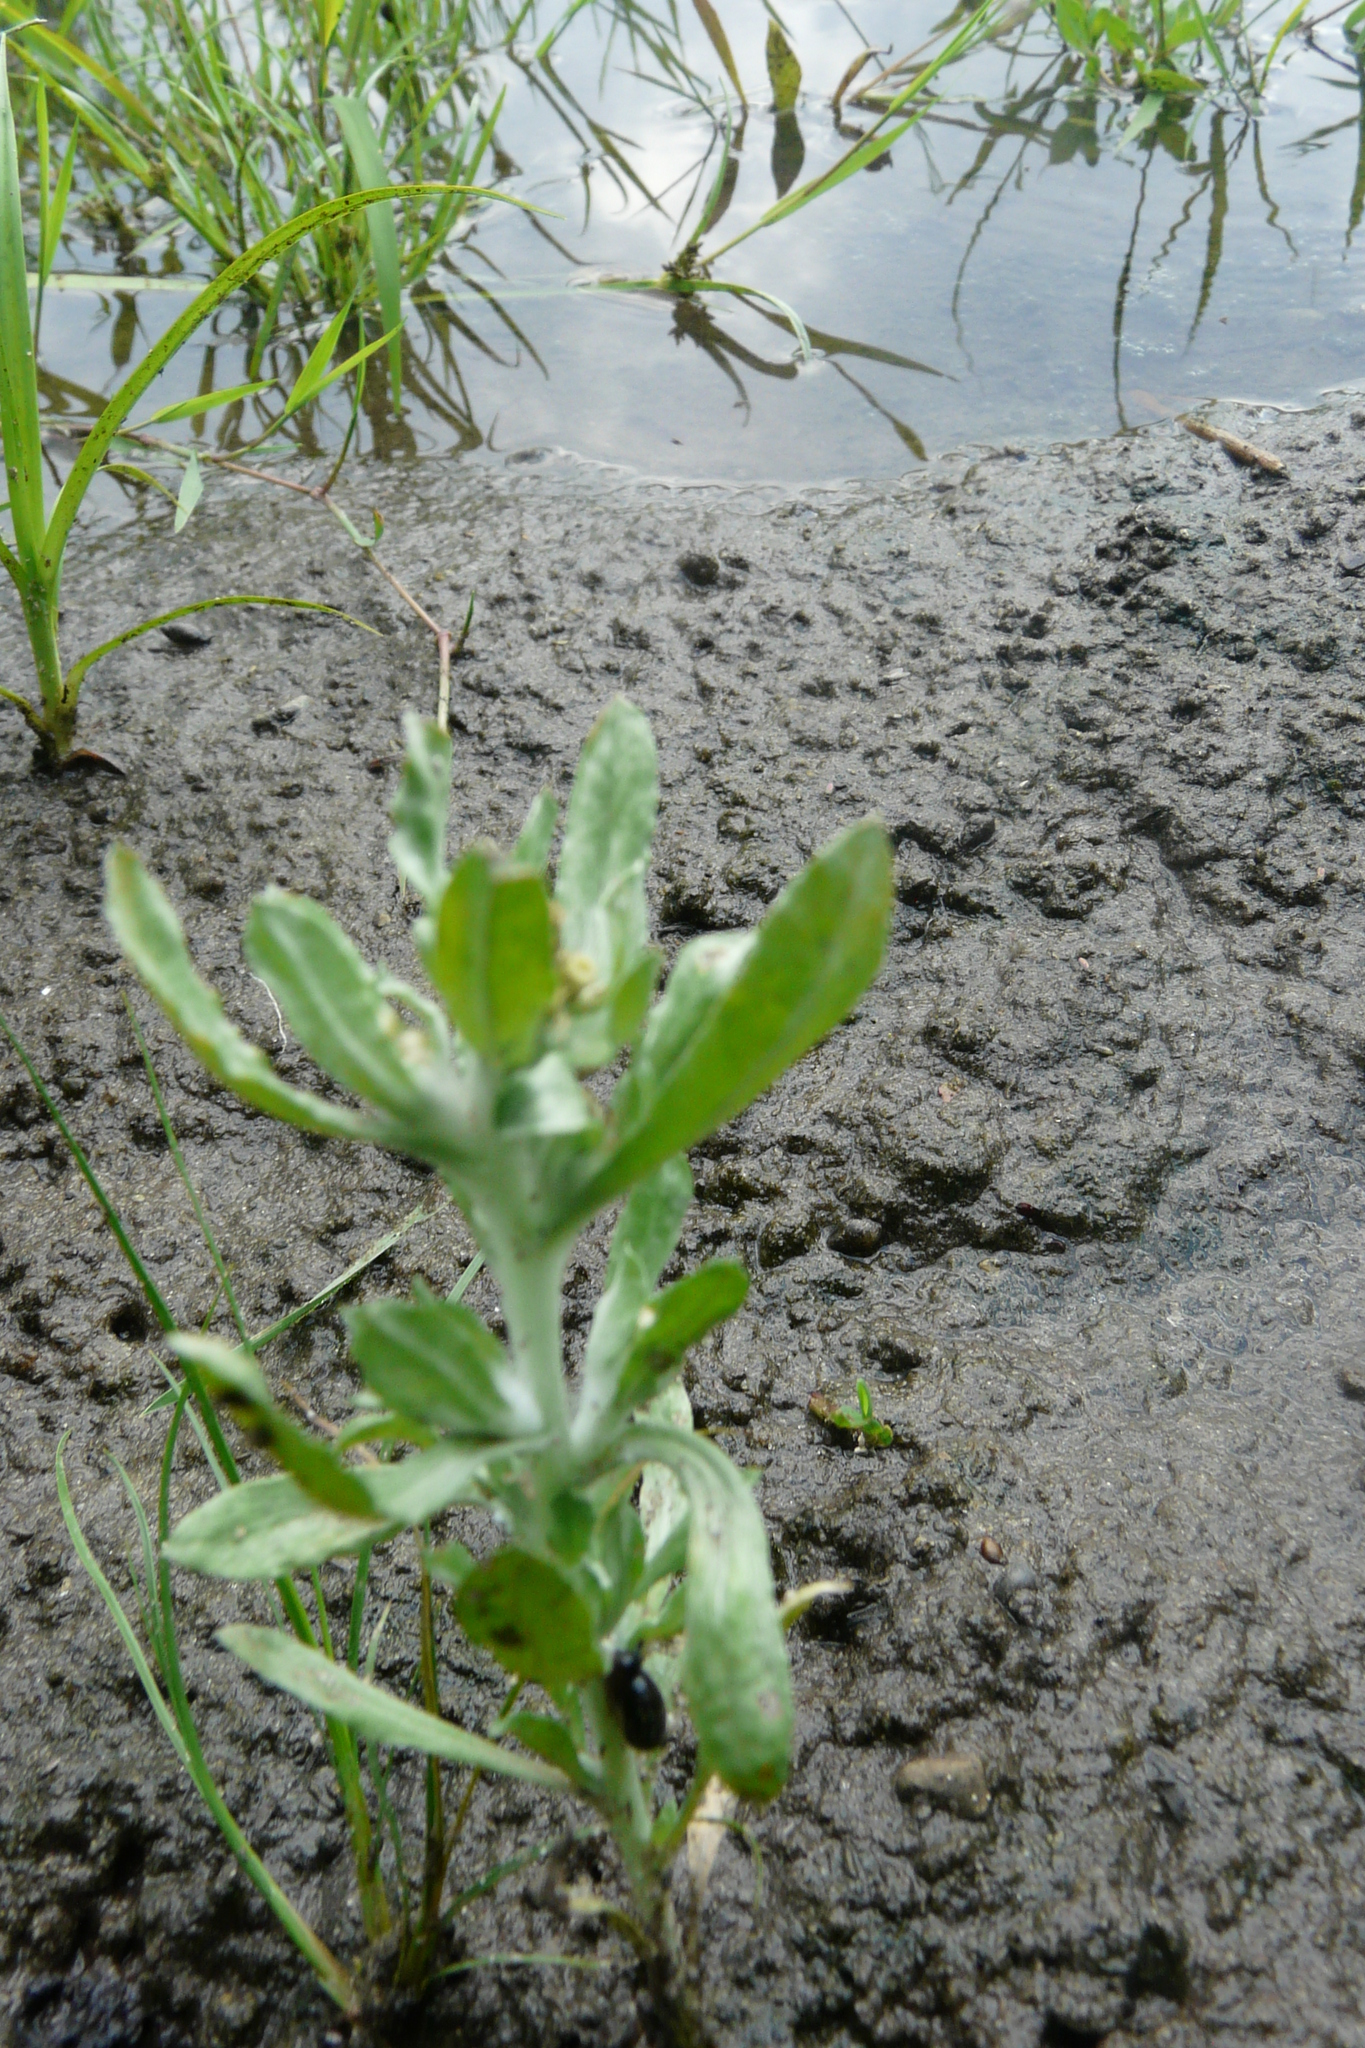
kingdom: Plantae
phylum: Tracheophyta
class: Magnoliopsida
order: Asterales
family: Asteraceae
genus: Gnaphalium
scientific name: Gnaphalium rossicum
